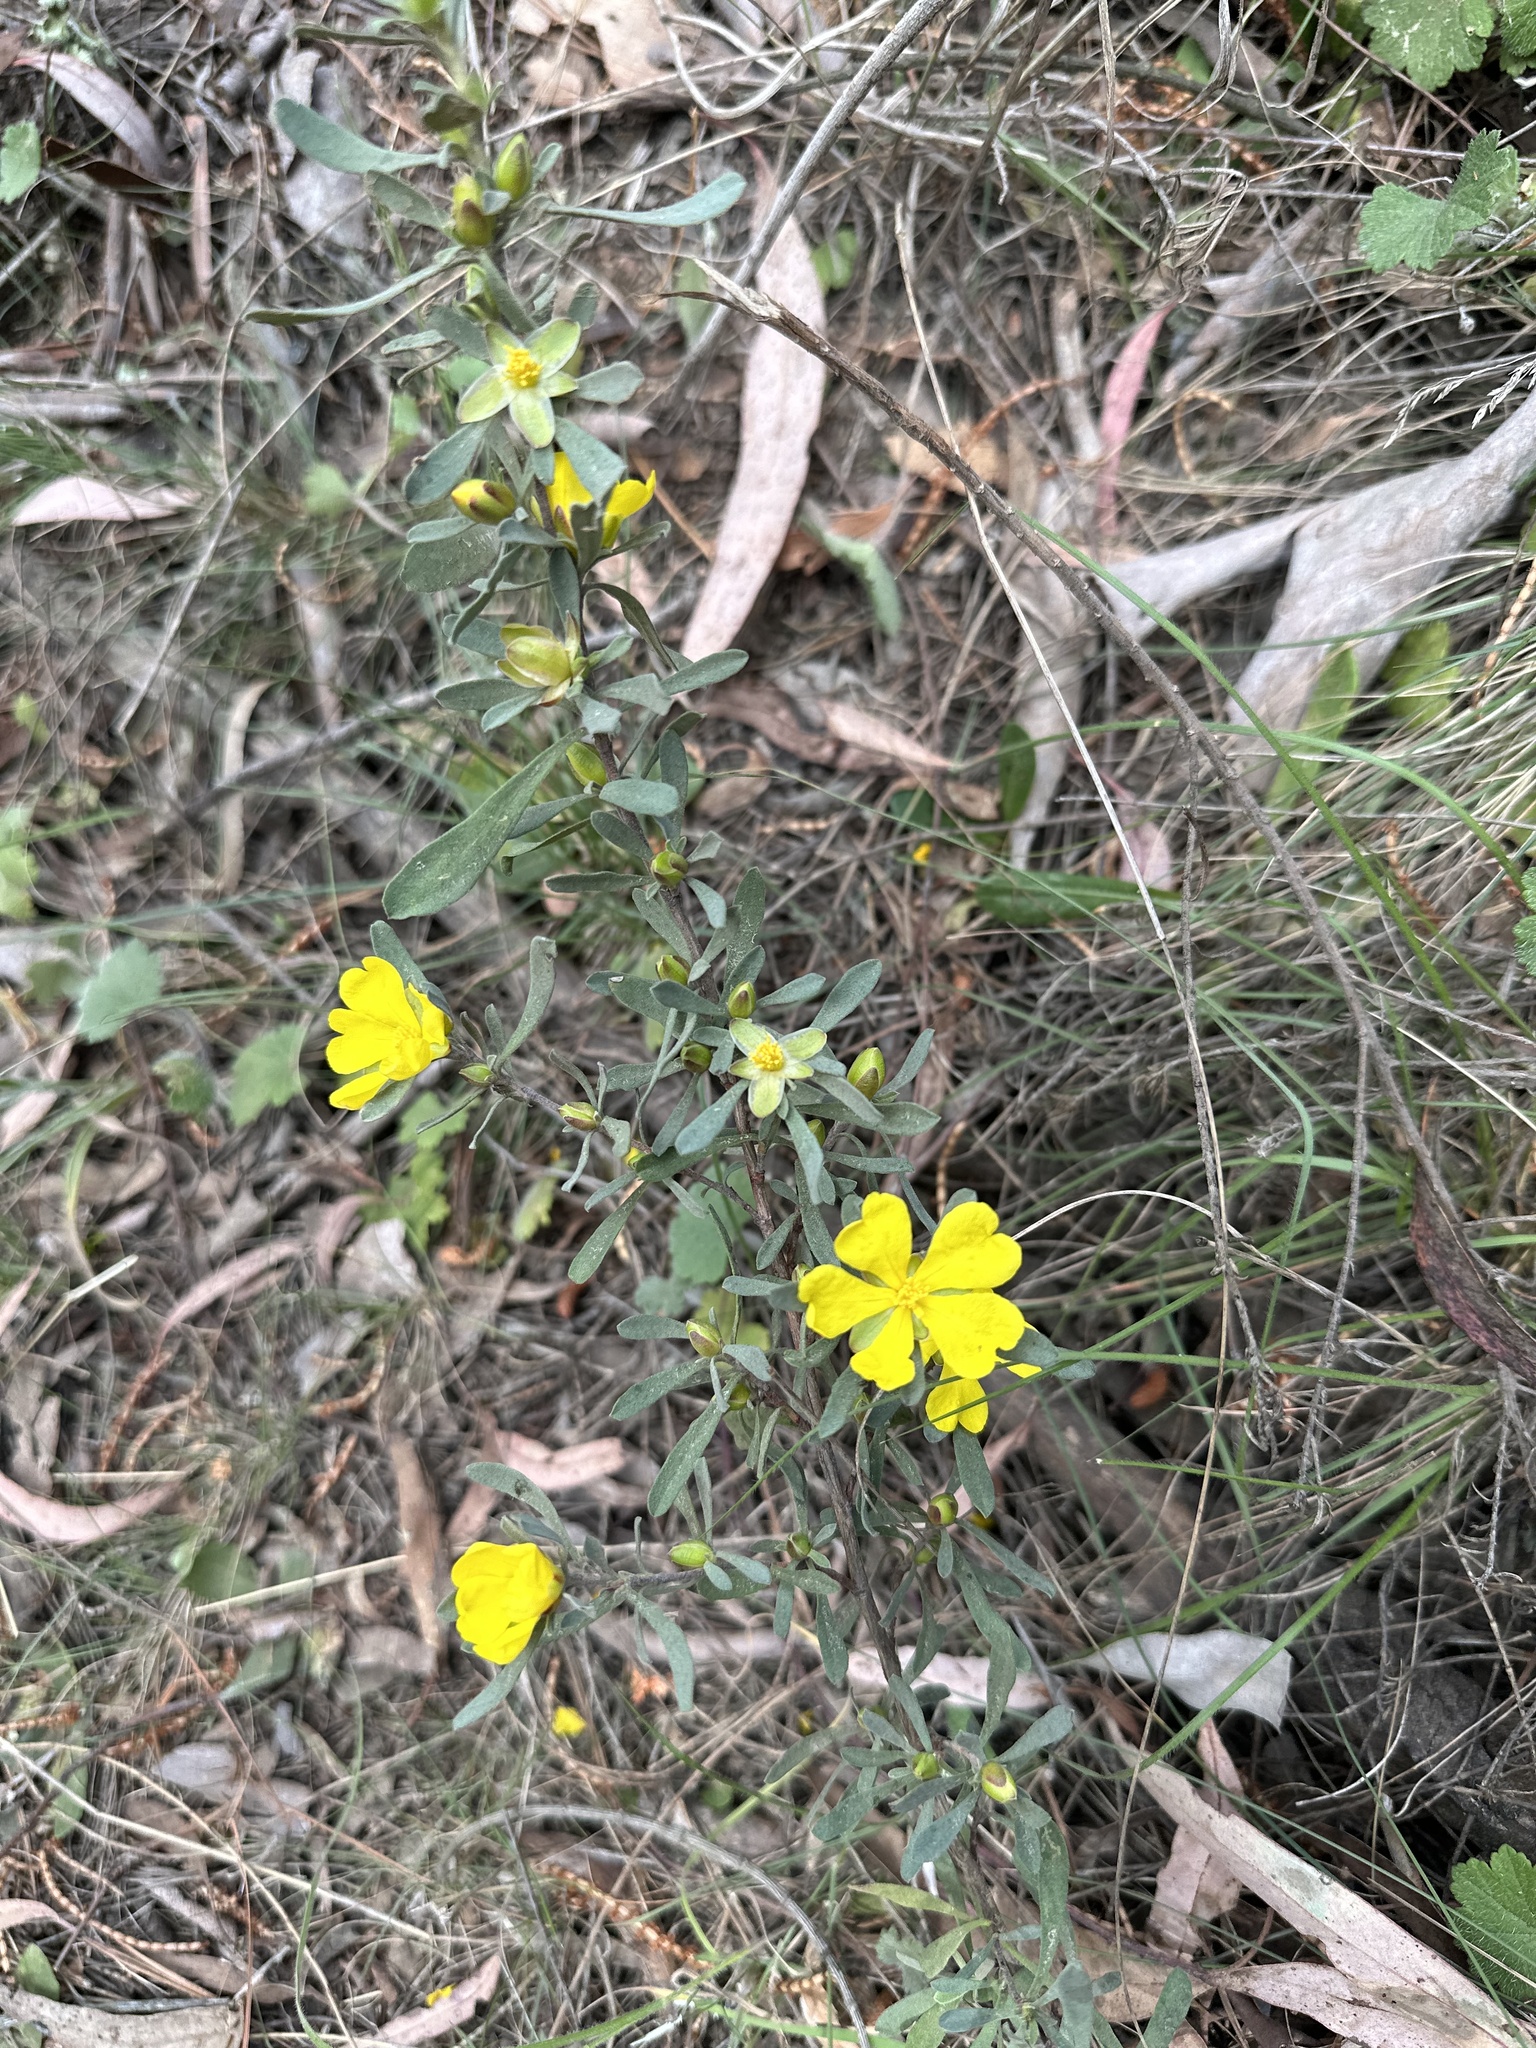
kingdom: Plantae
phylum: Tracheophyta
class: Magnoliopsida
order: Dilleniales
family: Dilleniaceae
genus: Hibbertia
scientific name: Hibbertia obtusifolia
